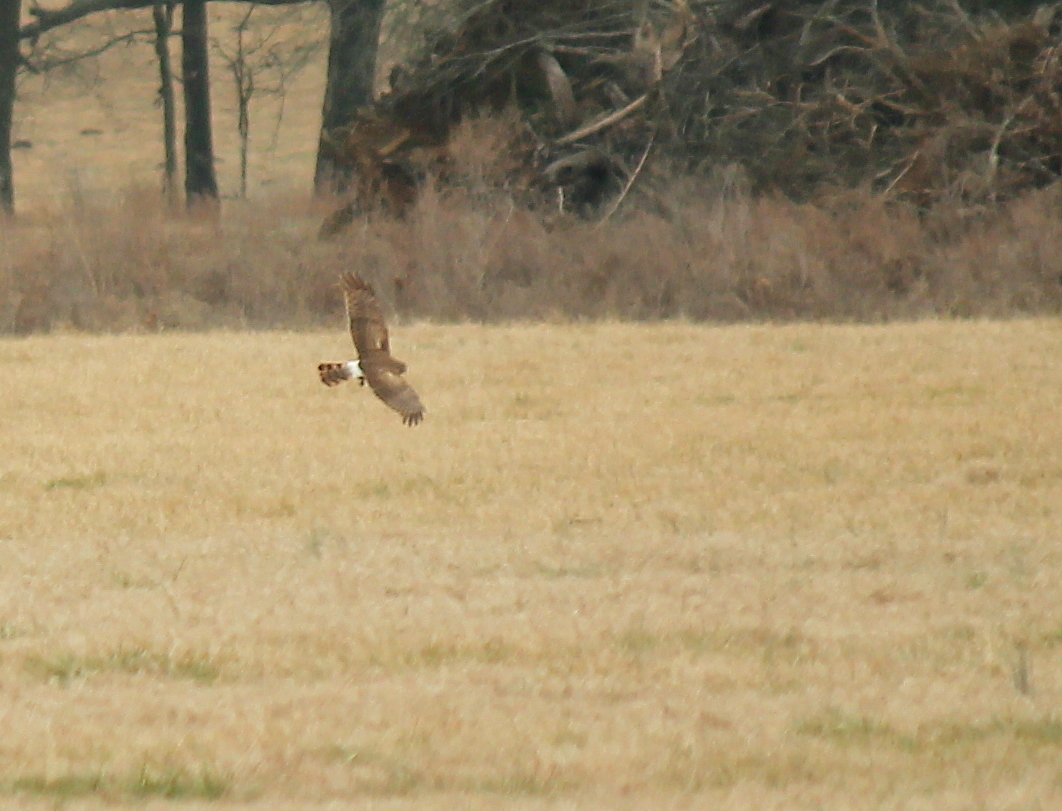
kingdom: Animalia
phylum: Chordata
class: Aves
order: Accipitriformes
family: Accipitridae
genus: Circus
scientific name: Circus cyaneus
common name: Hen harrier
